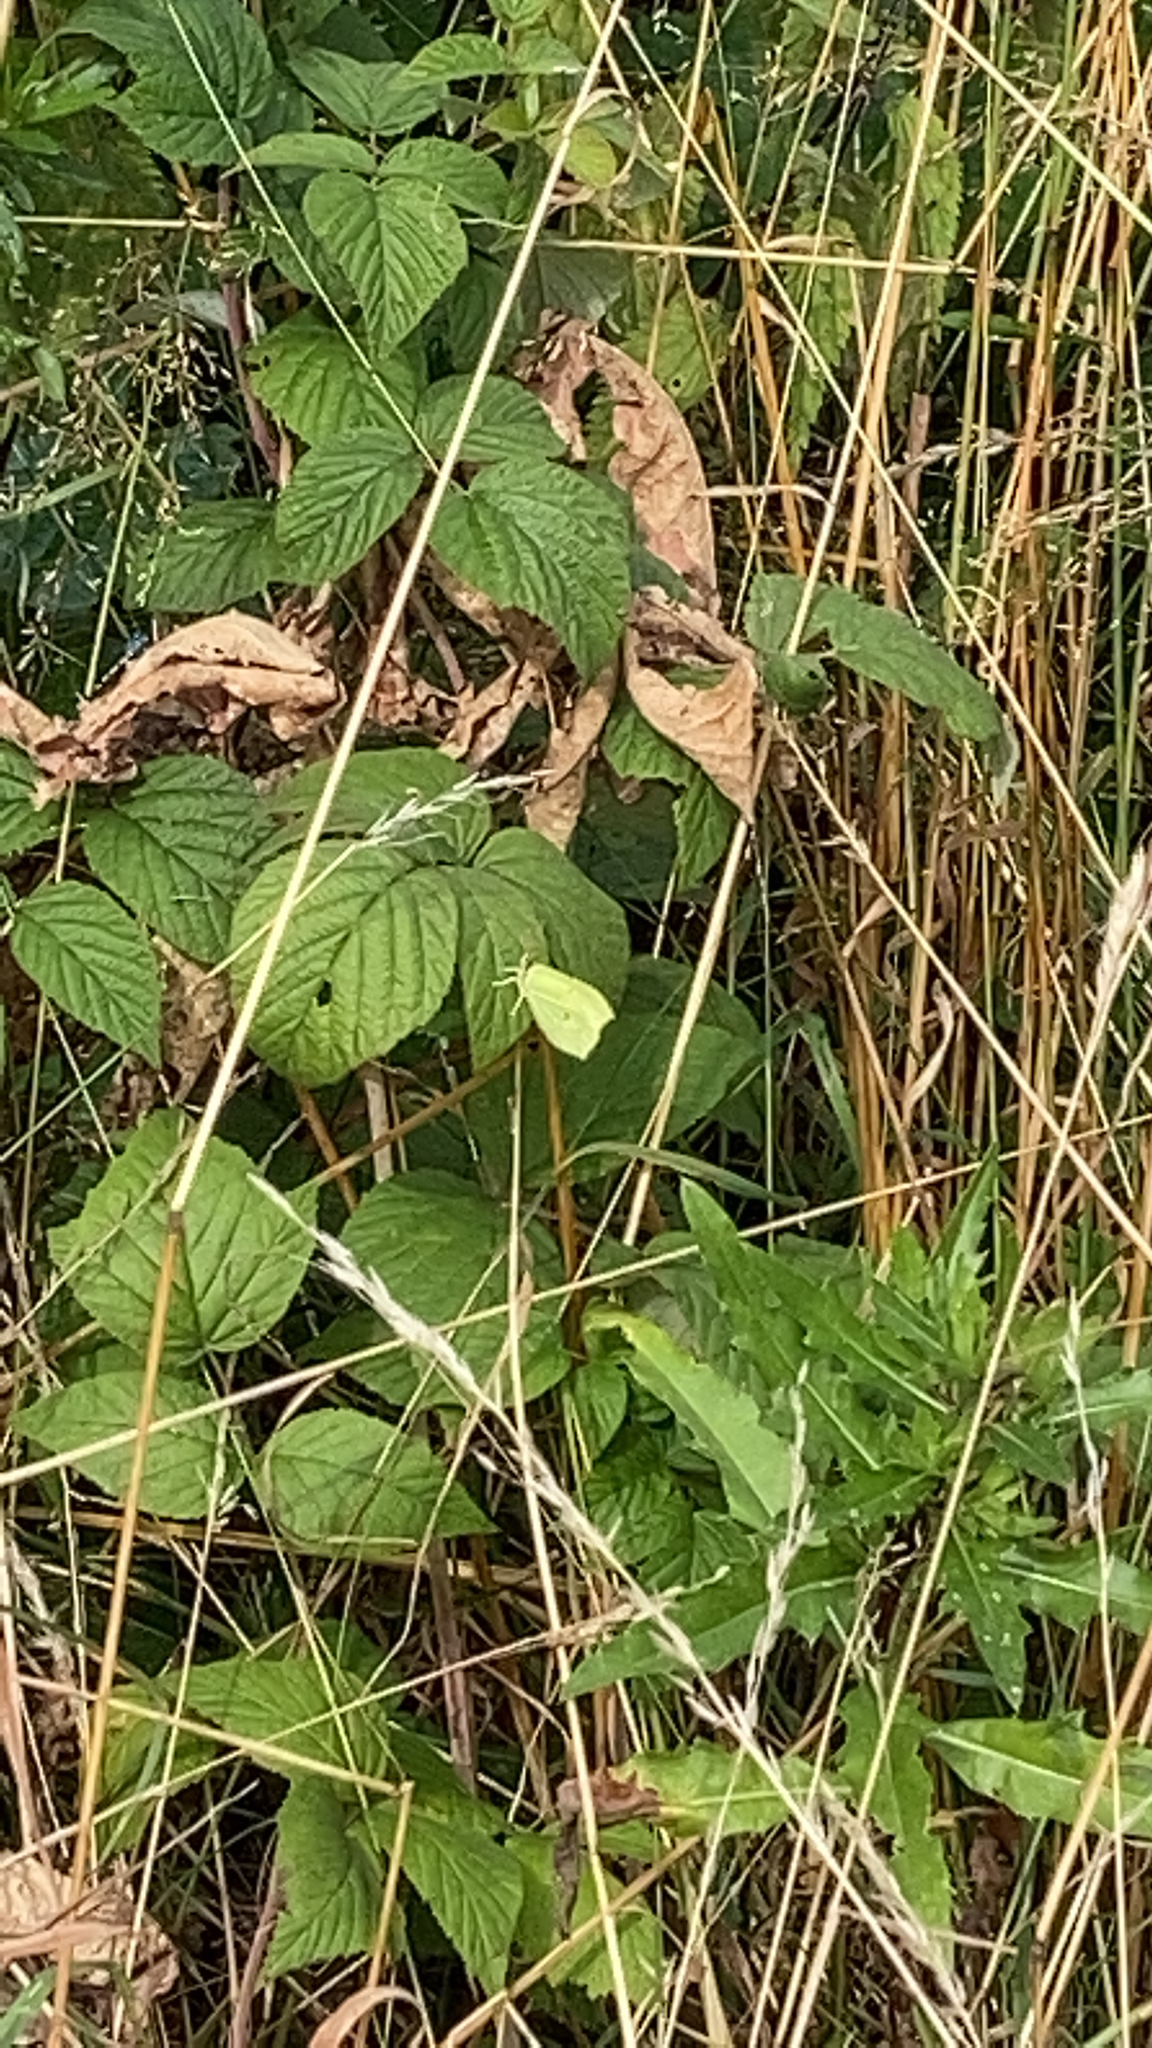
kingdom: Animalia
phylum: Arthropoda
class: Insecta
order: Lepidoptera
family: Pieridae
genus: Gonepteryx
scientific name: Gonepteryx rhamni
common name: Brimstone
